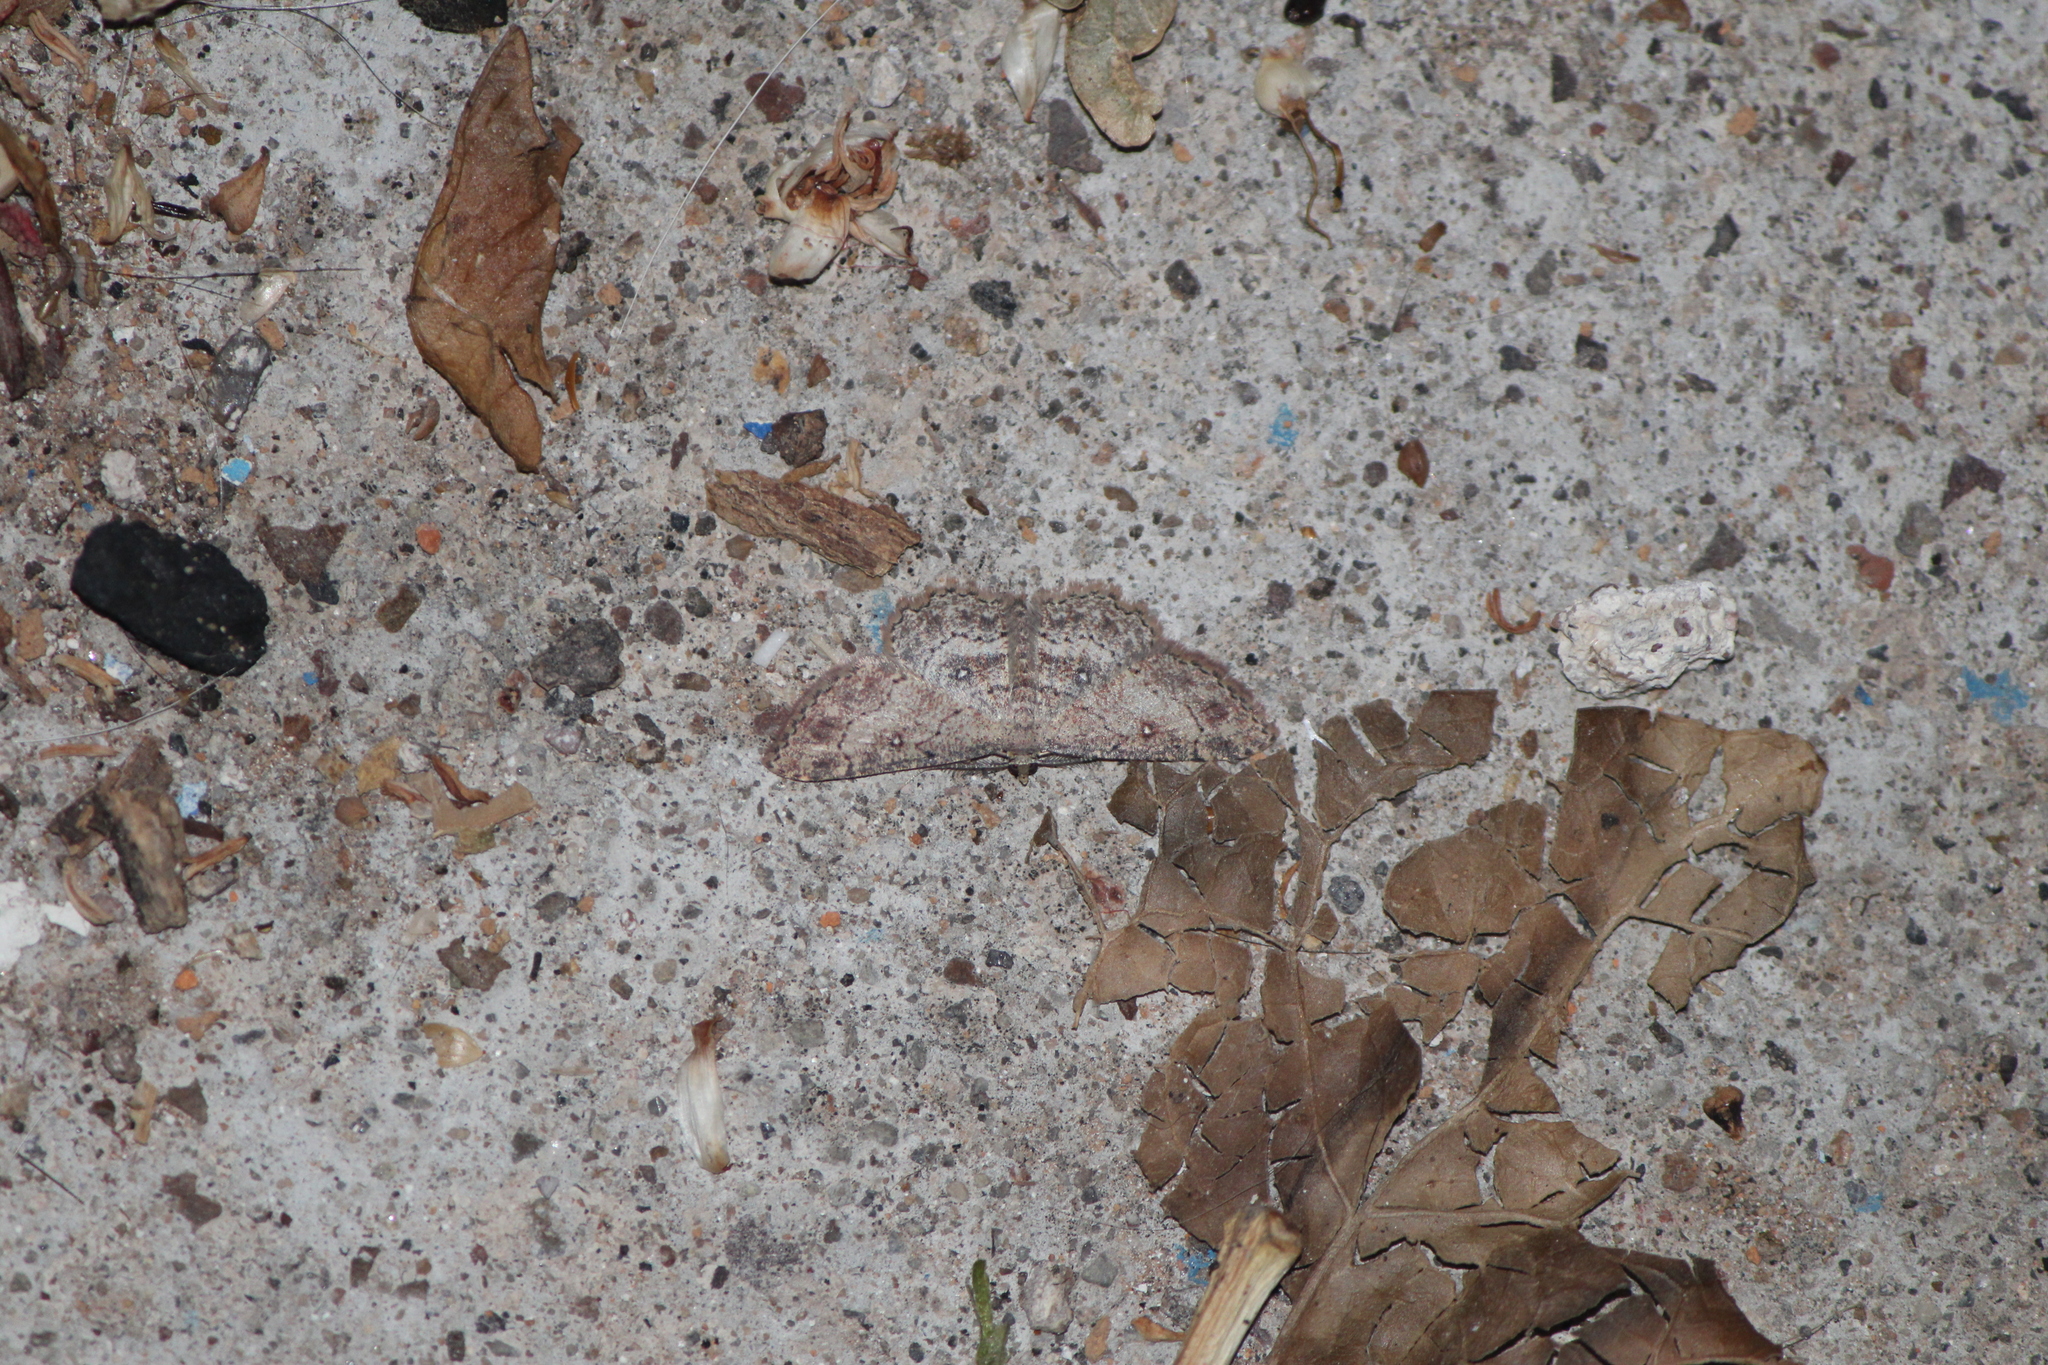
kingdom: Animalia
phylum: Arthropoda
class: Insecta
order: Lepidoptera
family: Geometridae
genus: Cyclophora
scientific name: Cyclophora nanaria
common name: Cankerworm
